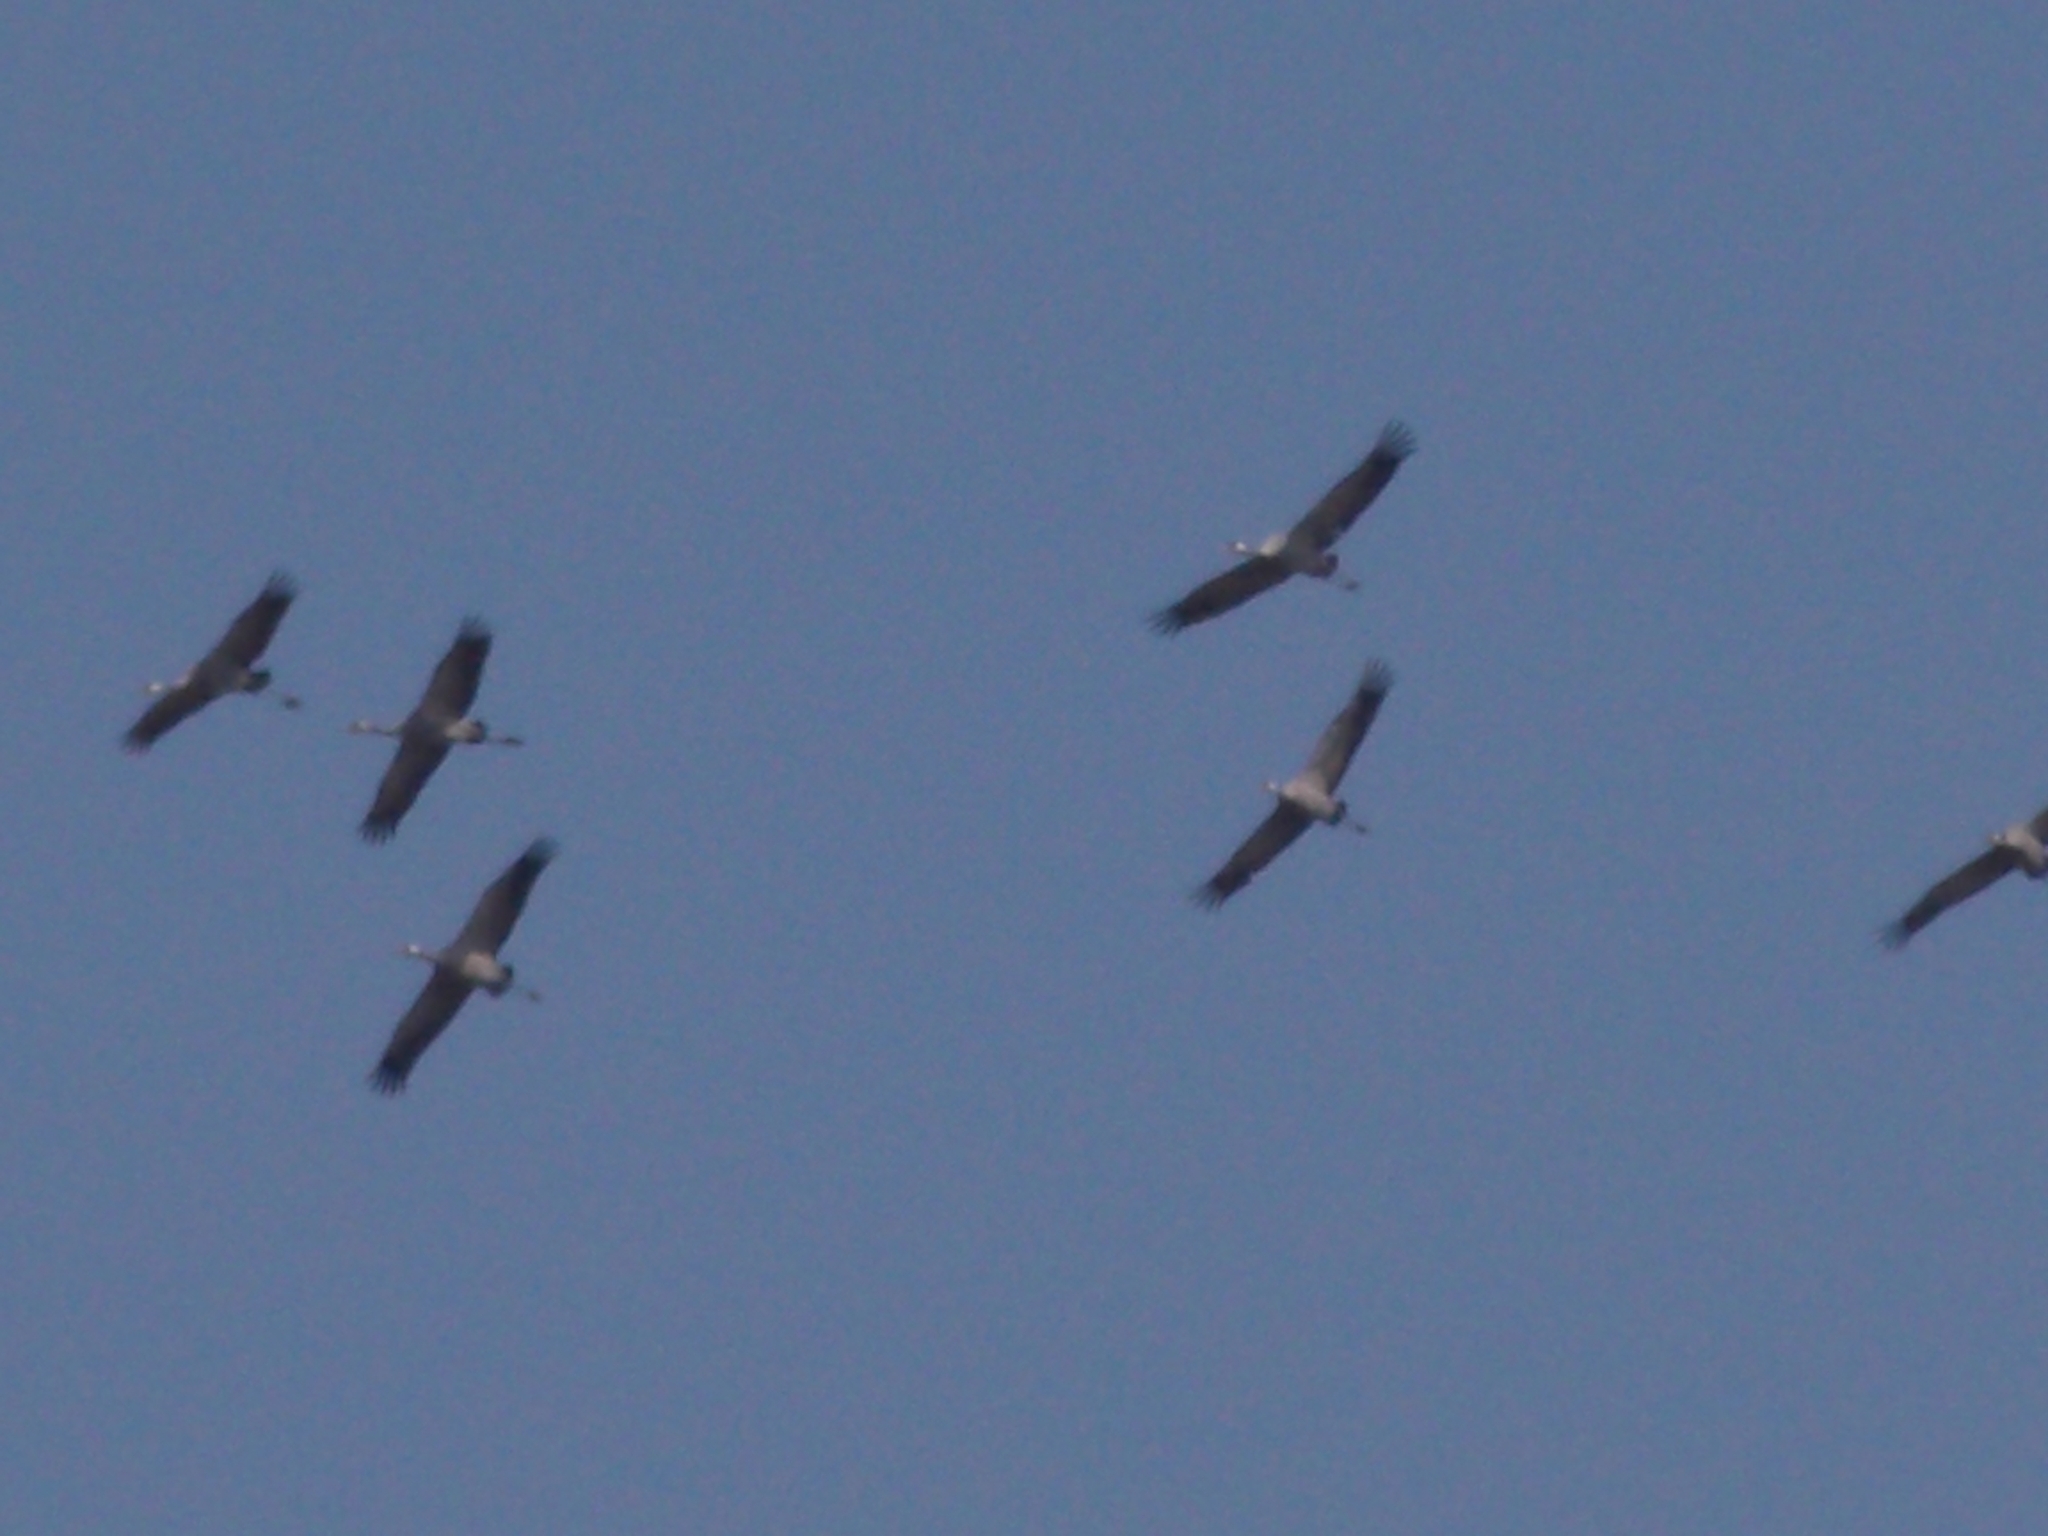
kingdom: Animalia
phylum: Chordata
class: Aves
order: Gruiformes
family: Gruidae
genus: Grus
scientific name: Grus grus
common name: Common crane
